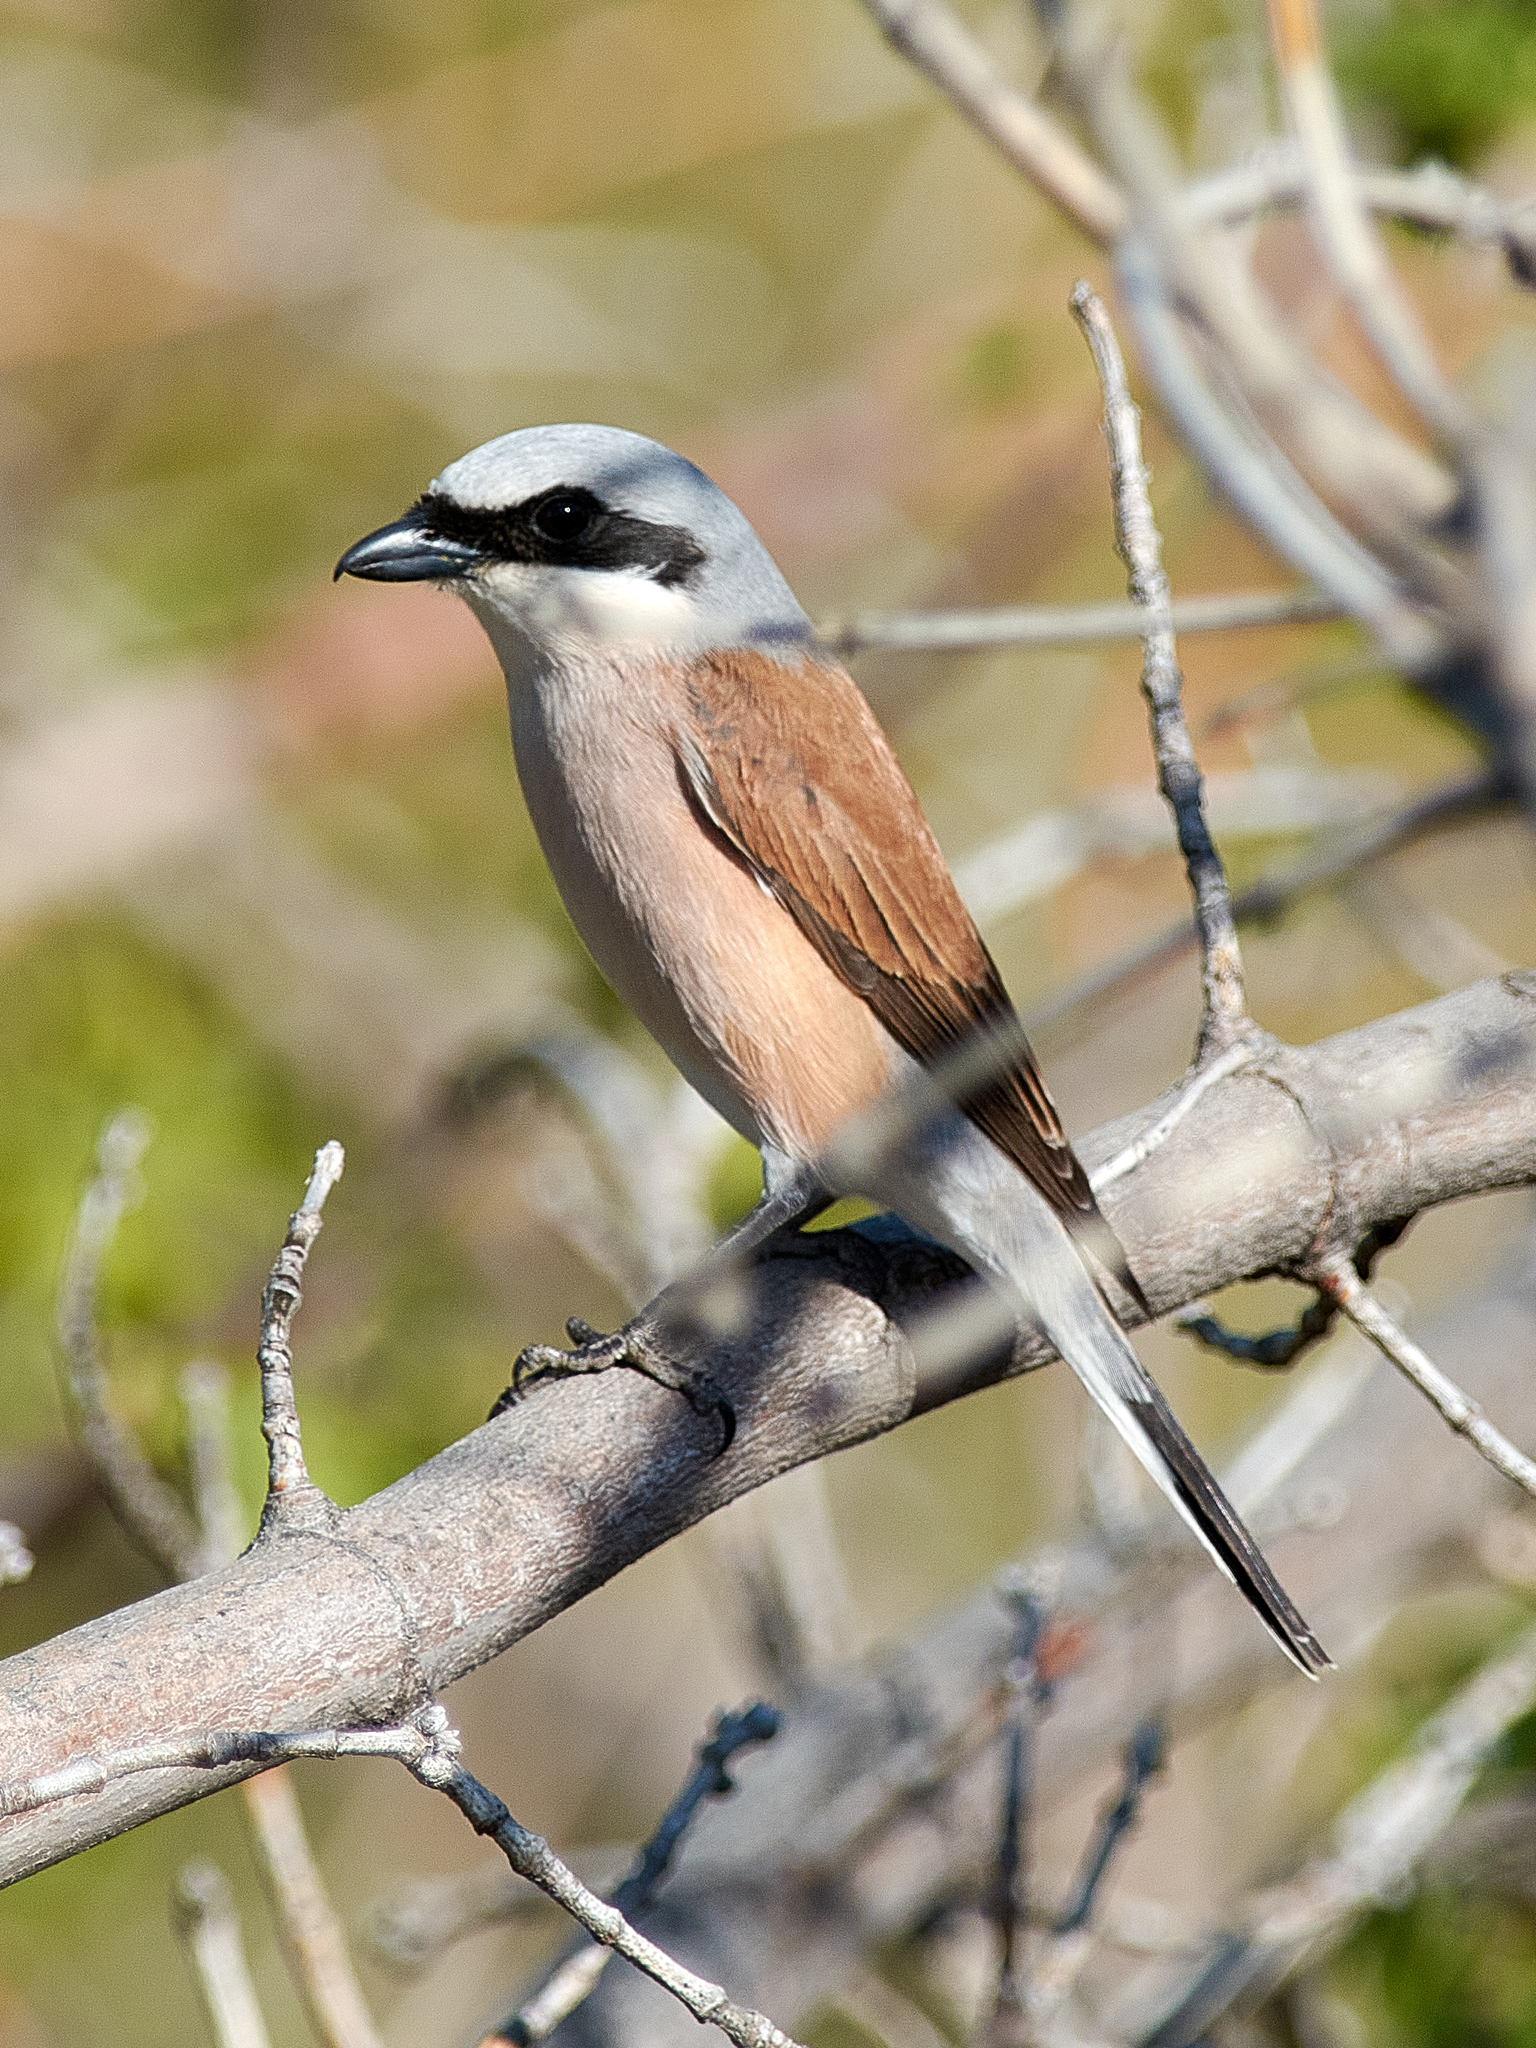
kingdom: Animalia
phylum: Chordata
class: Aves
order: Passeriformes
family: Laniidae
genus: Lanius
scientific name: Lanius collurio
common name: Red-backed shrike
